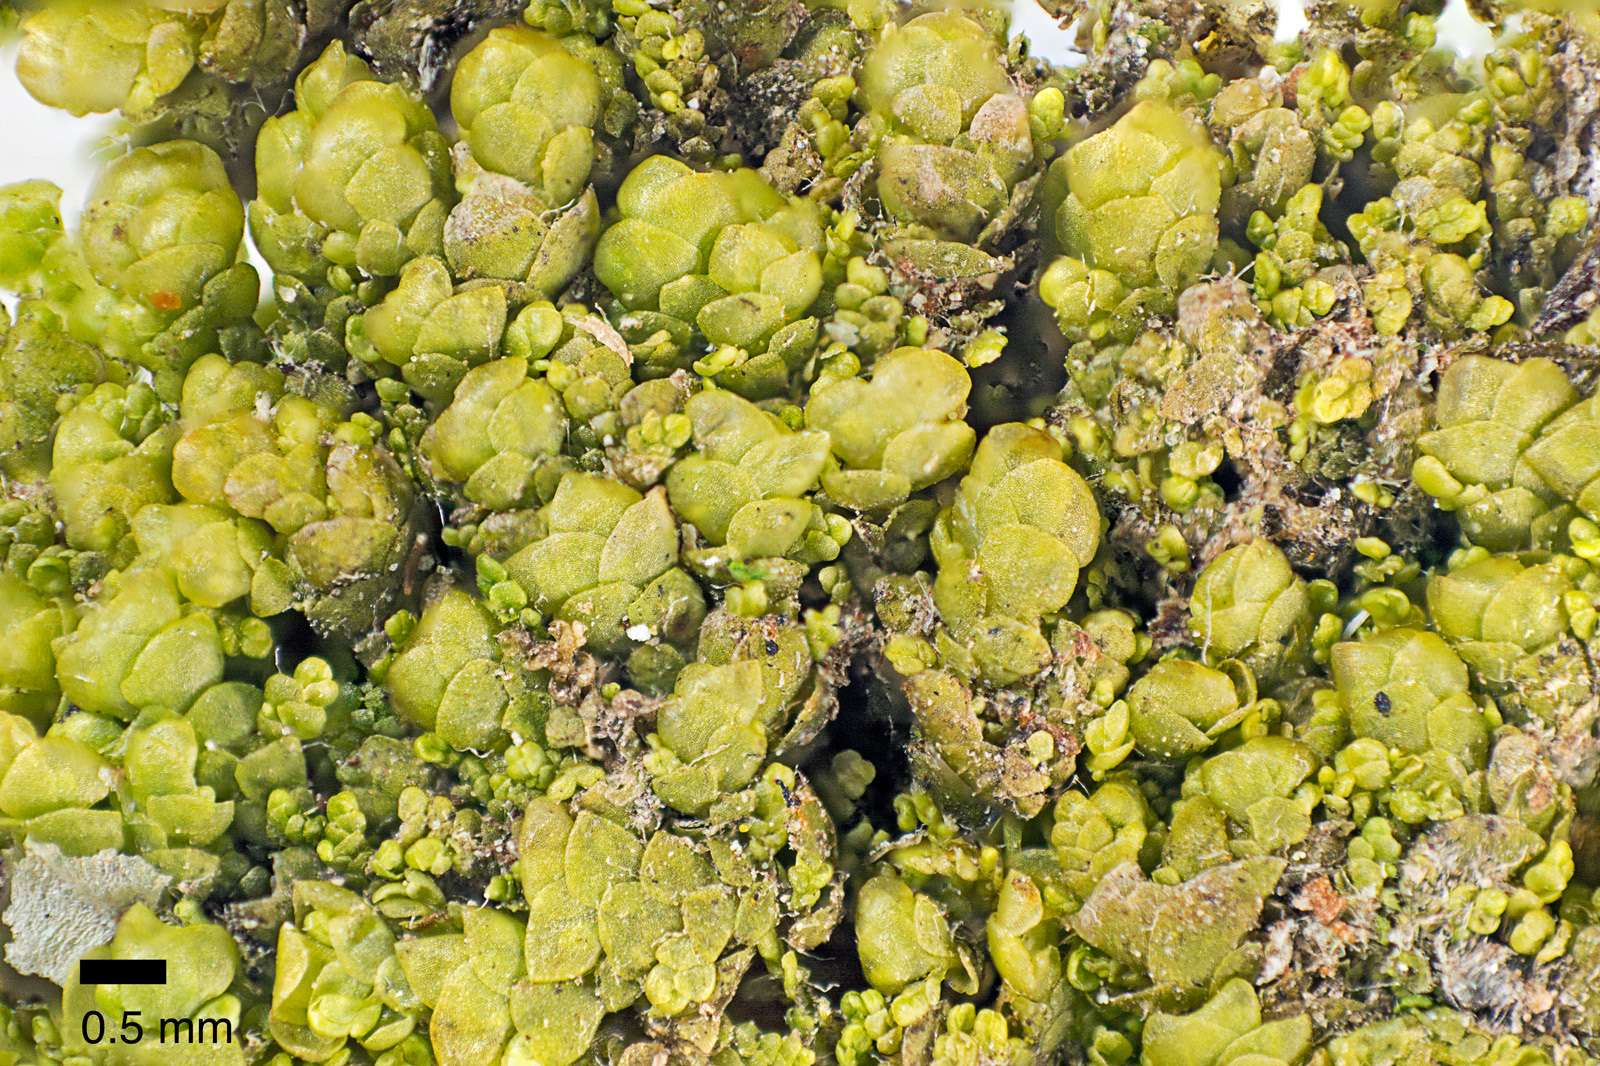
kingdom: Plantae
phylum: Marchantiophyta
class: Jungermanniopsida
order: Porellales
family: Radulaceae
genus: Radula
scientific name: Radula physoloba
